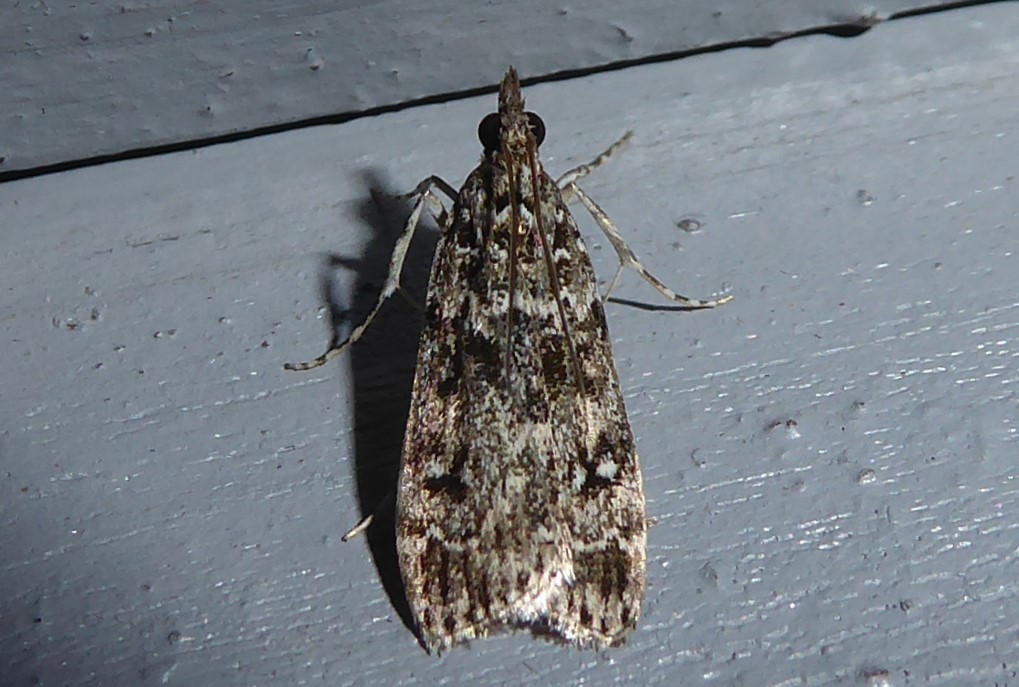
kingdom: Animalia
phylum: Arthropoda
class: Insecta
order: Lepidoptera
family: Crambidae
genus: Eudonia
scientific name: Eudonia philerga
